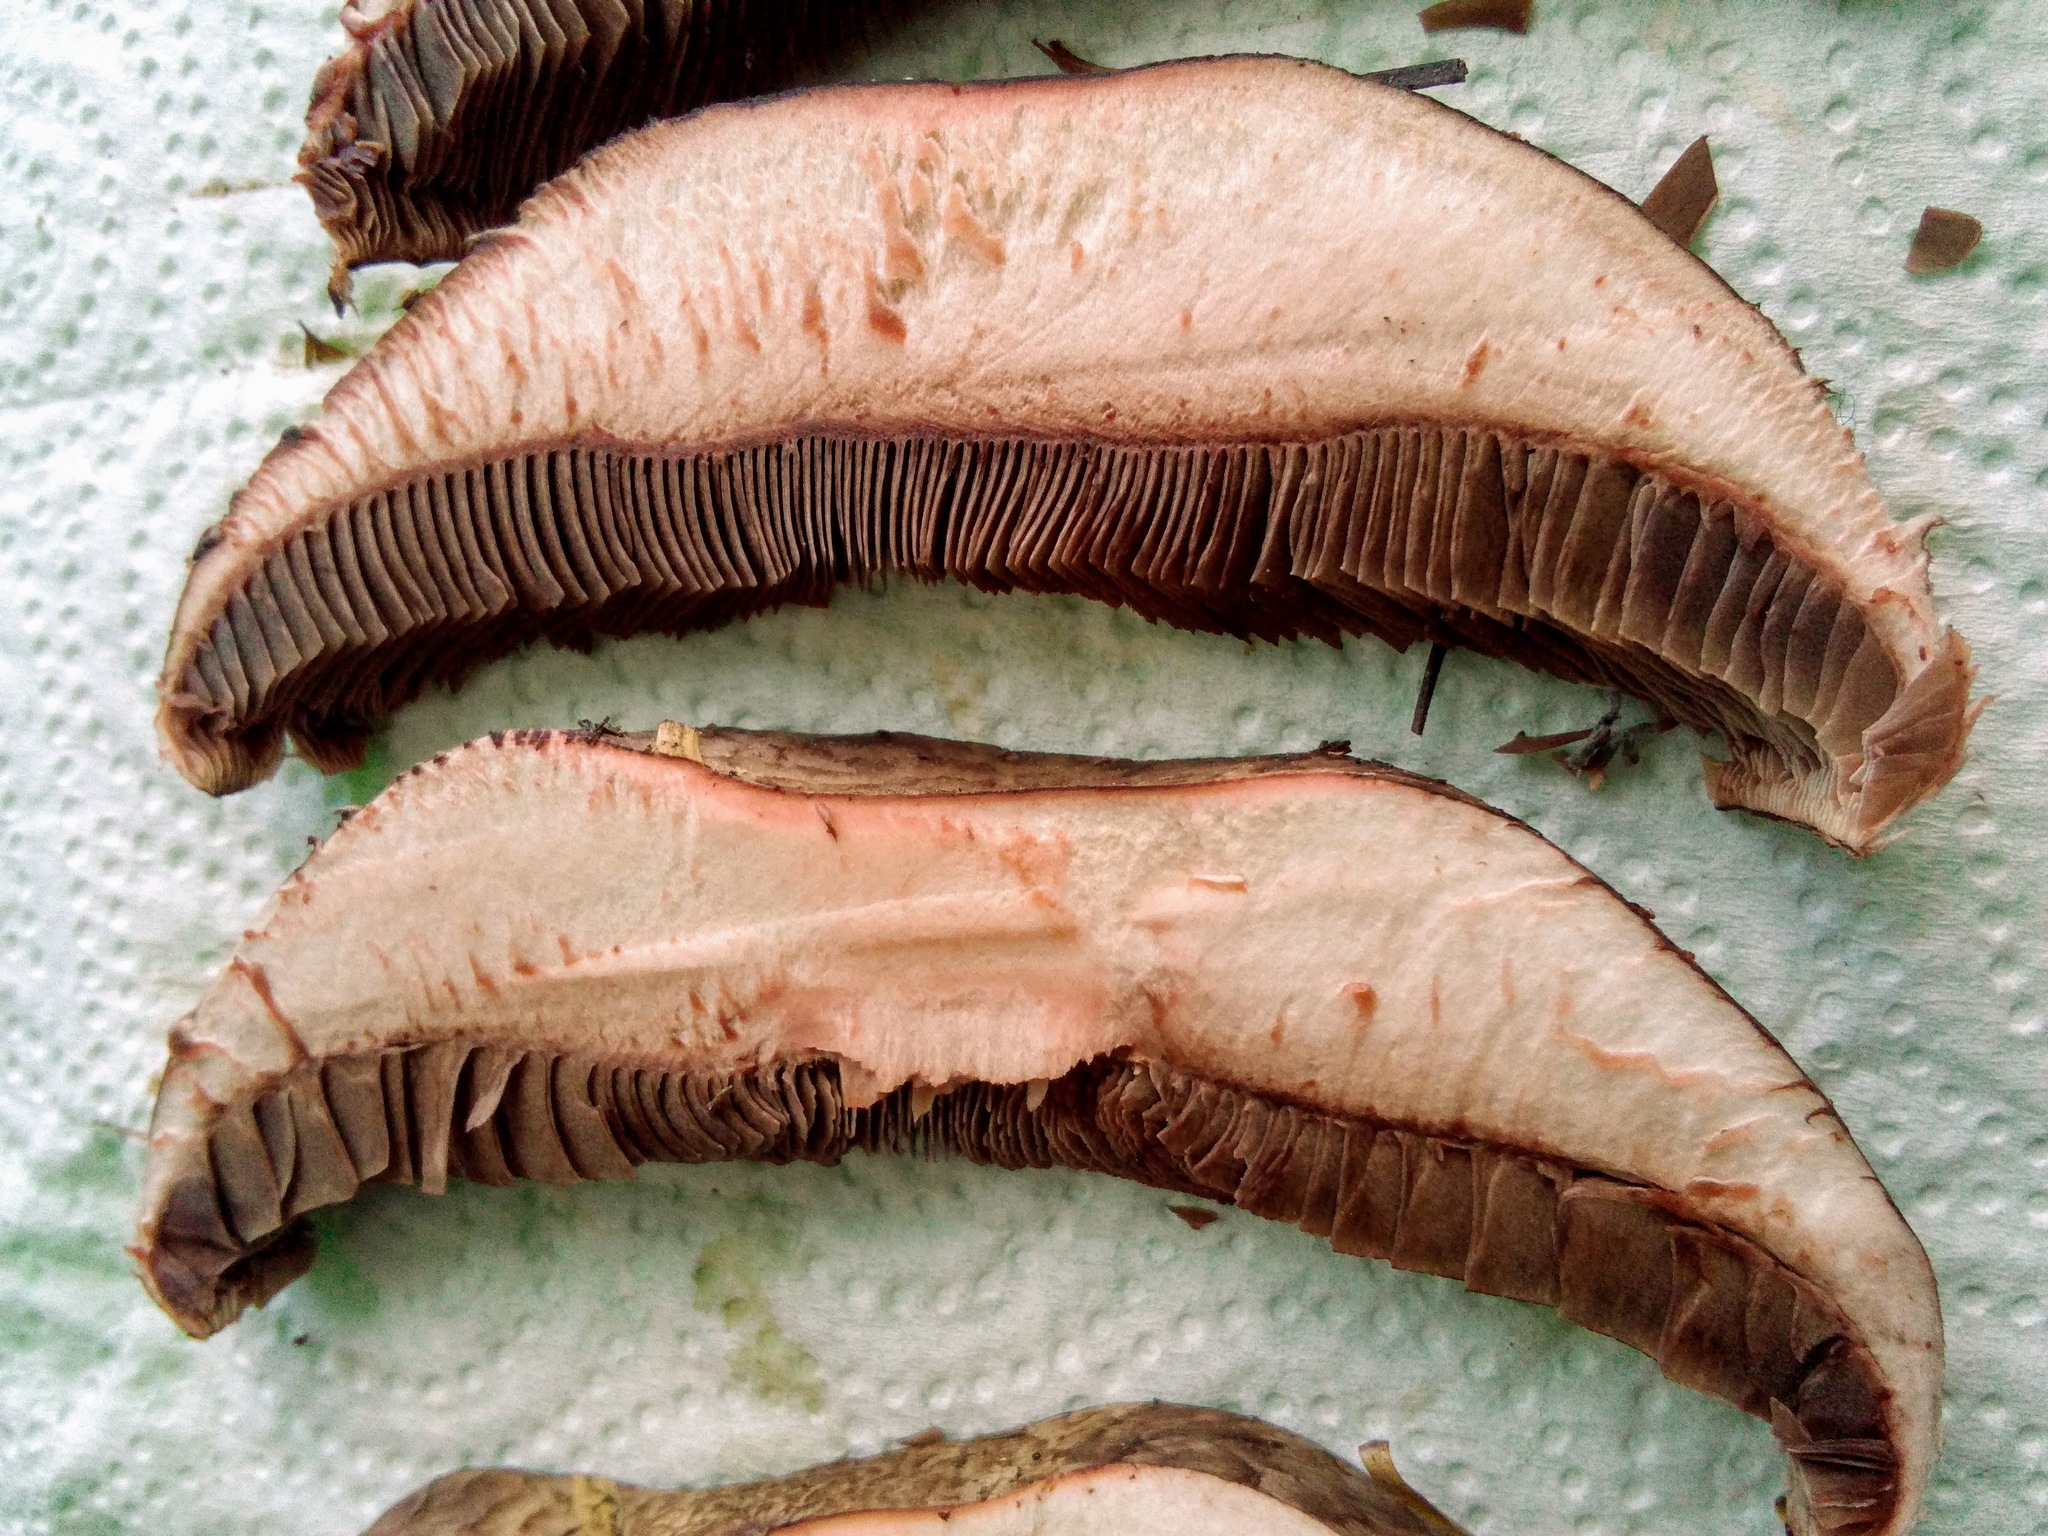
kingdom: Fungi
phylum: Basidiomycota
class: Agaricomycetes
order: Agaricales
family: Agaricaceae
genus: Agaricus
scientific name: Agaricus sylvaticus
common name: Blushing wood mushroom
